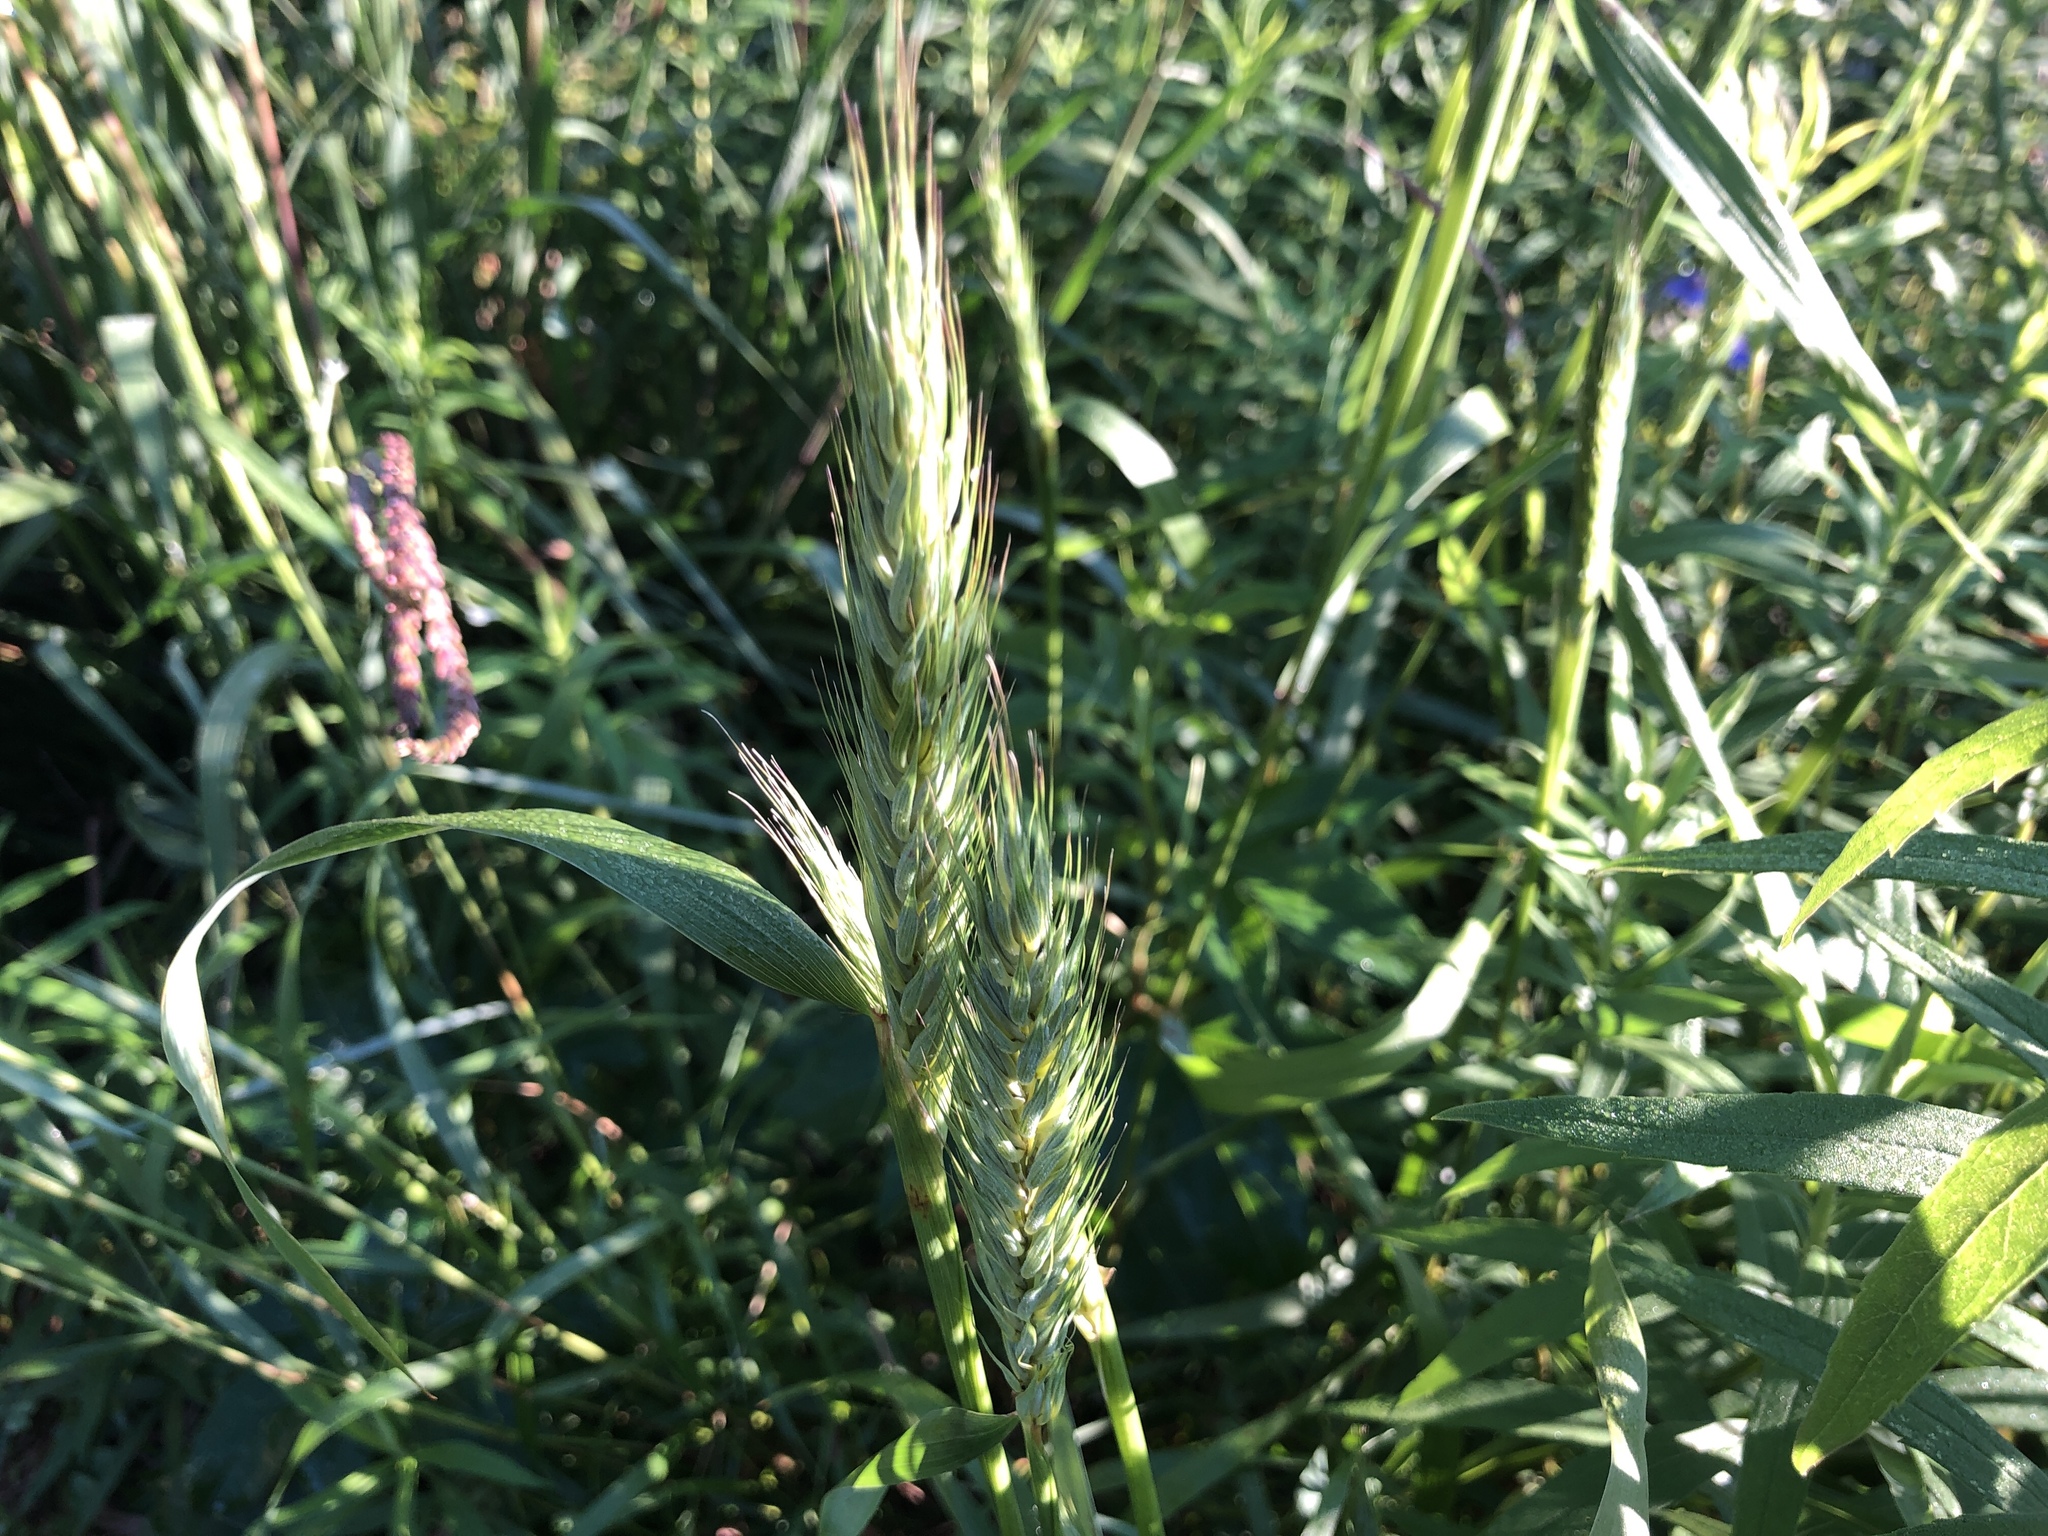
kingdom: Plantae
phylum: Tracheophyta
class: Liliopsida
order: Poales
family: Poaceae
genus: Elymus
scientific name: Elymus virginicus
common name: Common eastern wildrye
